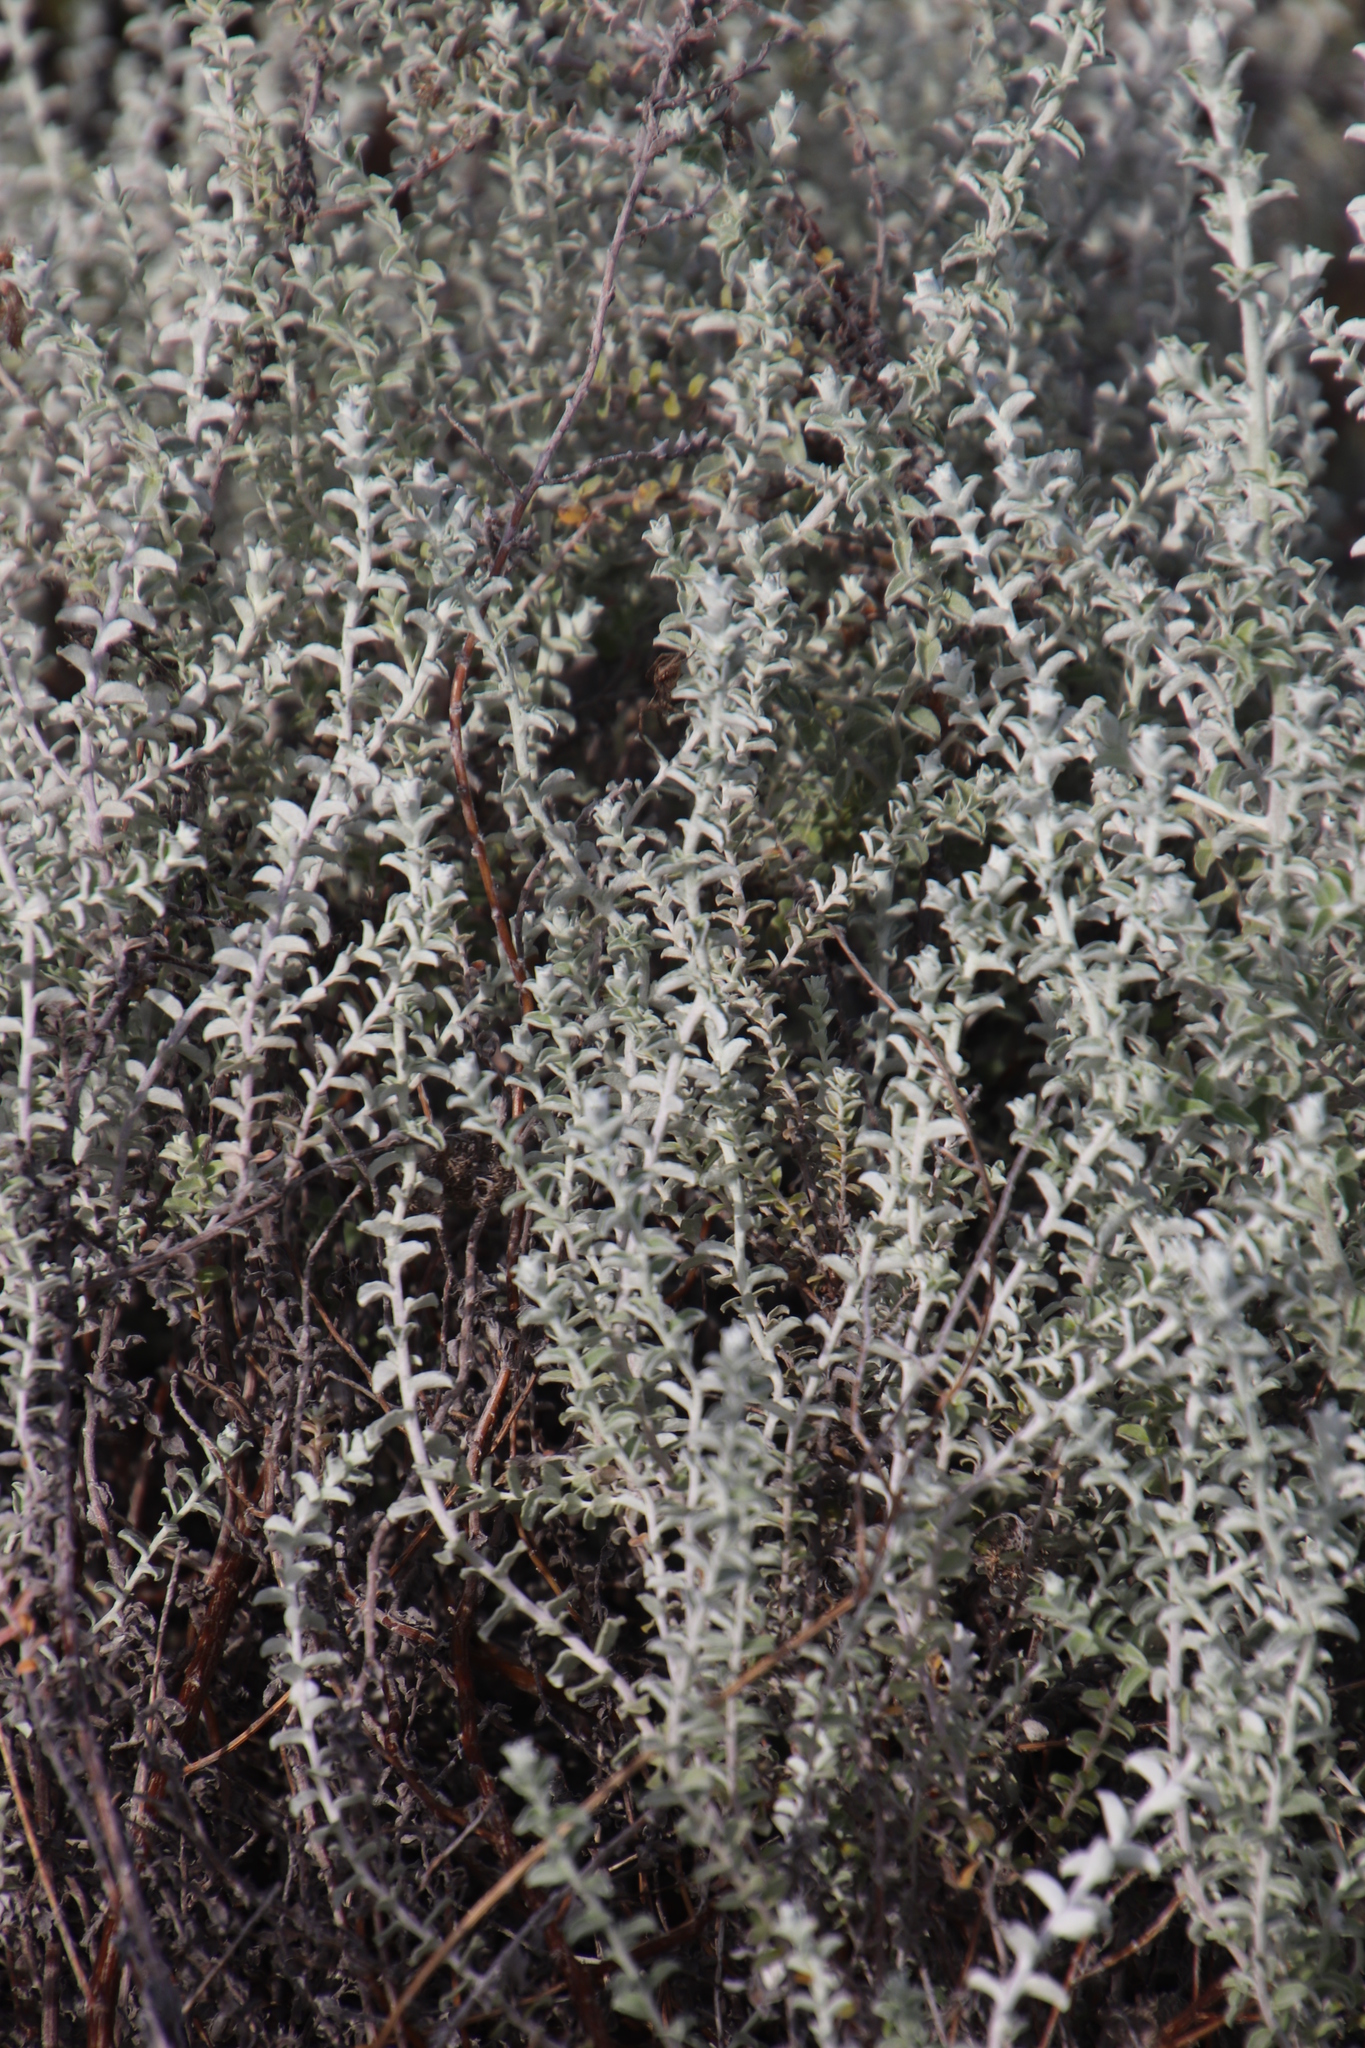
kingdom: Plantae
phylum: Tracheophyta
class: Magnoliopsida
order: Asterales
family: Asteraceae
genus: Seriphium
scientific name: Seriphium plumosum
